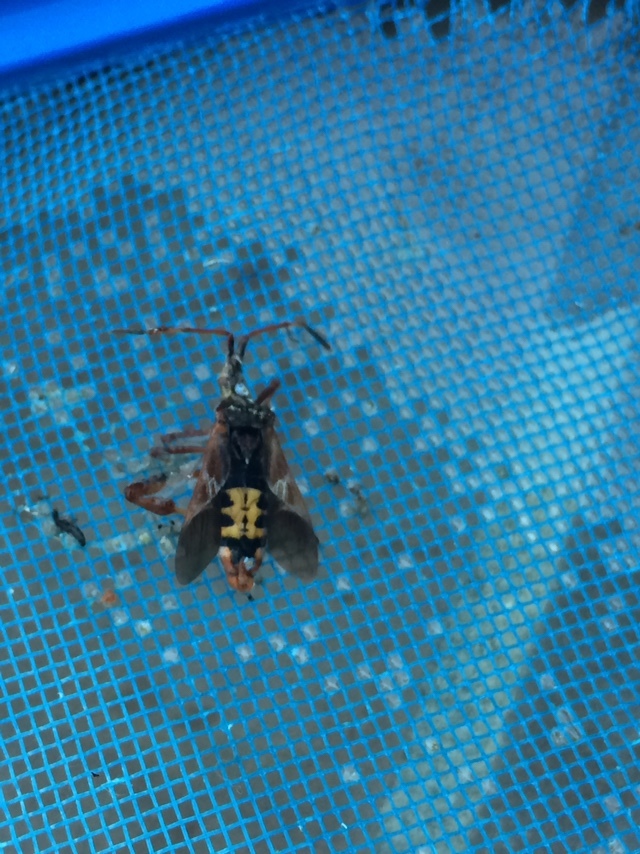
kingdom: Animalia
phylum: Arthropoda
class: Insecta
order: Hemiptera
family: Coreidae
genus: Leptoglossus
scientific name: Leptoglossus occidentalis
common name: Western conifer-seed bug
